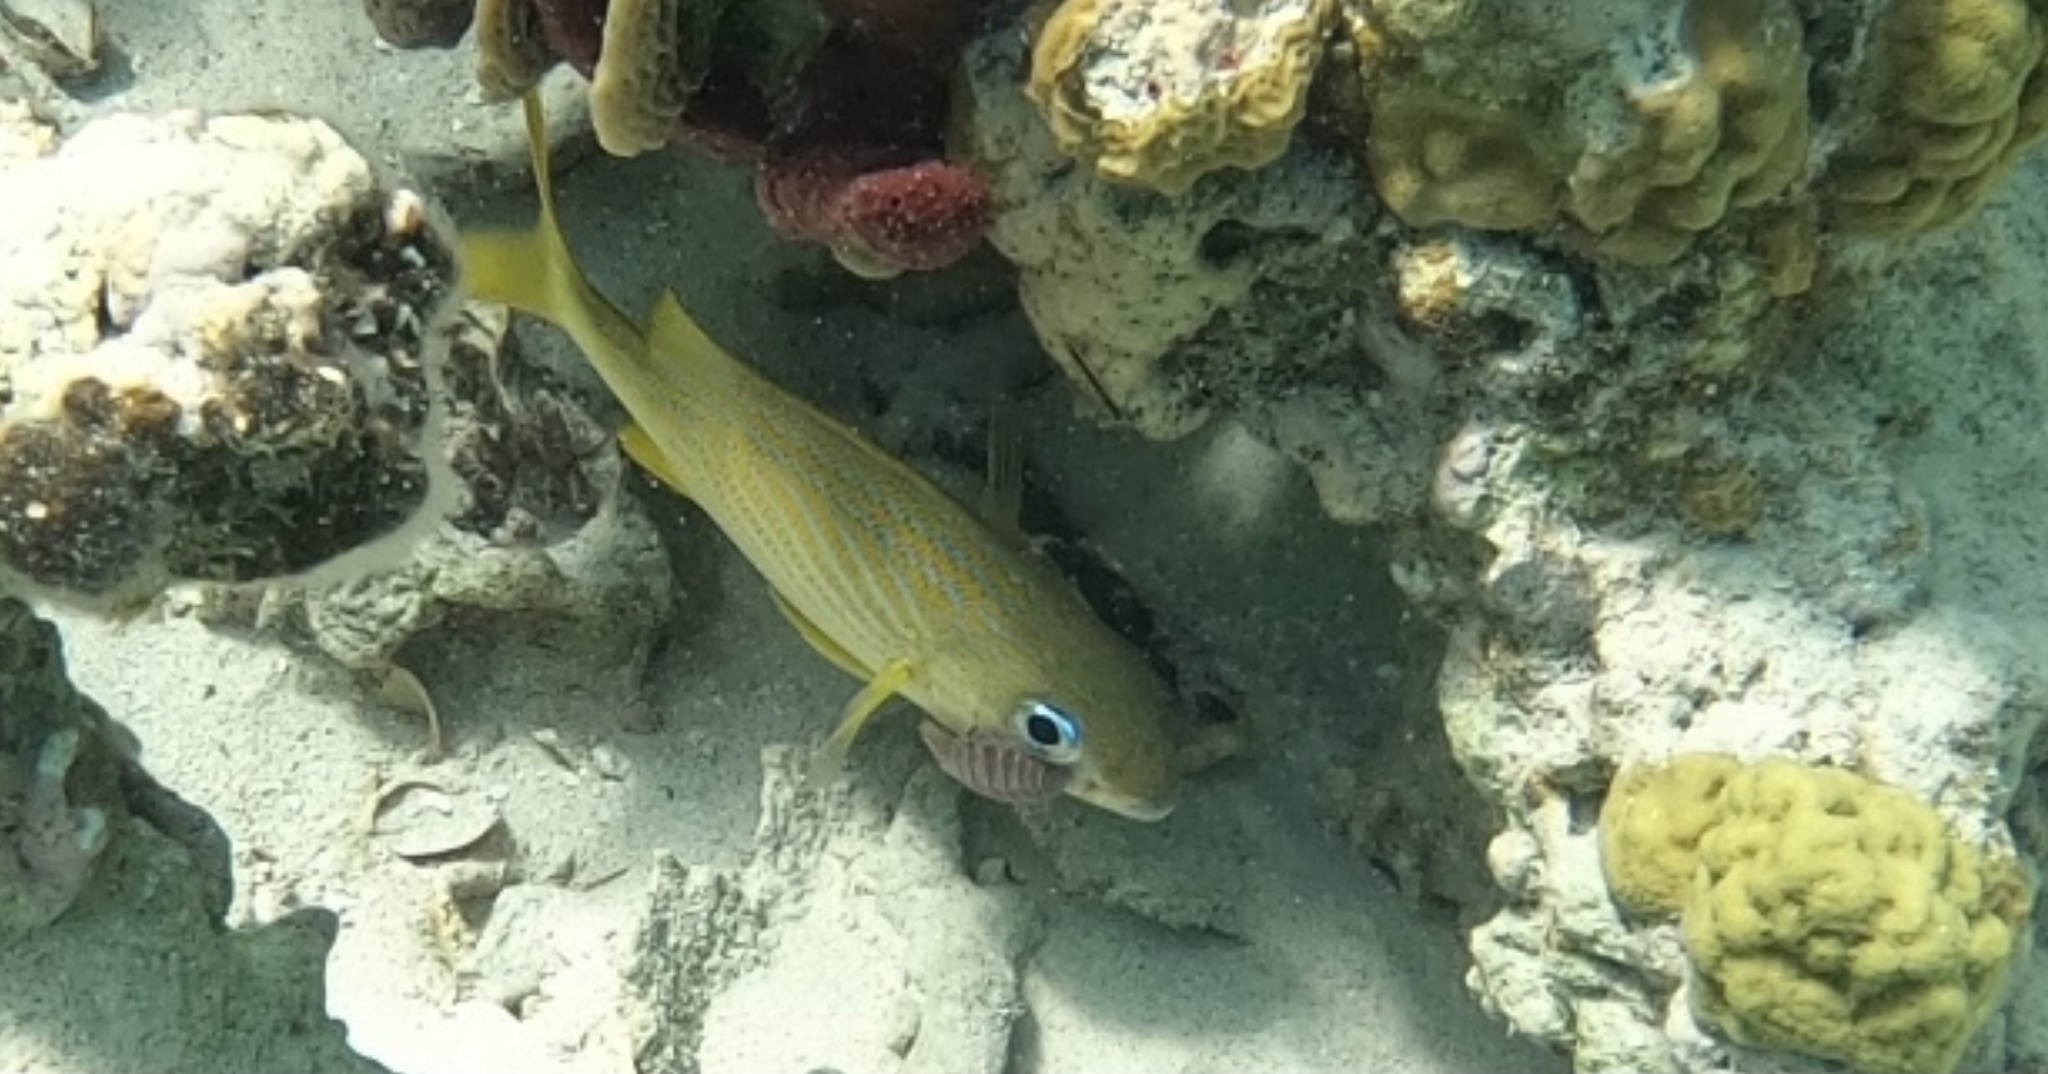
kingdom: Animalia
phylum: Arthropoda
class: Malacostraca
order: Isopoda
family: Cymothoidae
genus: Anilocra
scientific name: Anilocra haemuli
